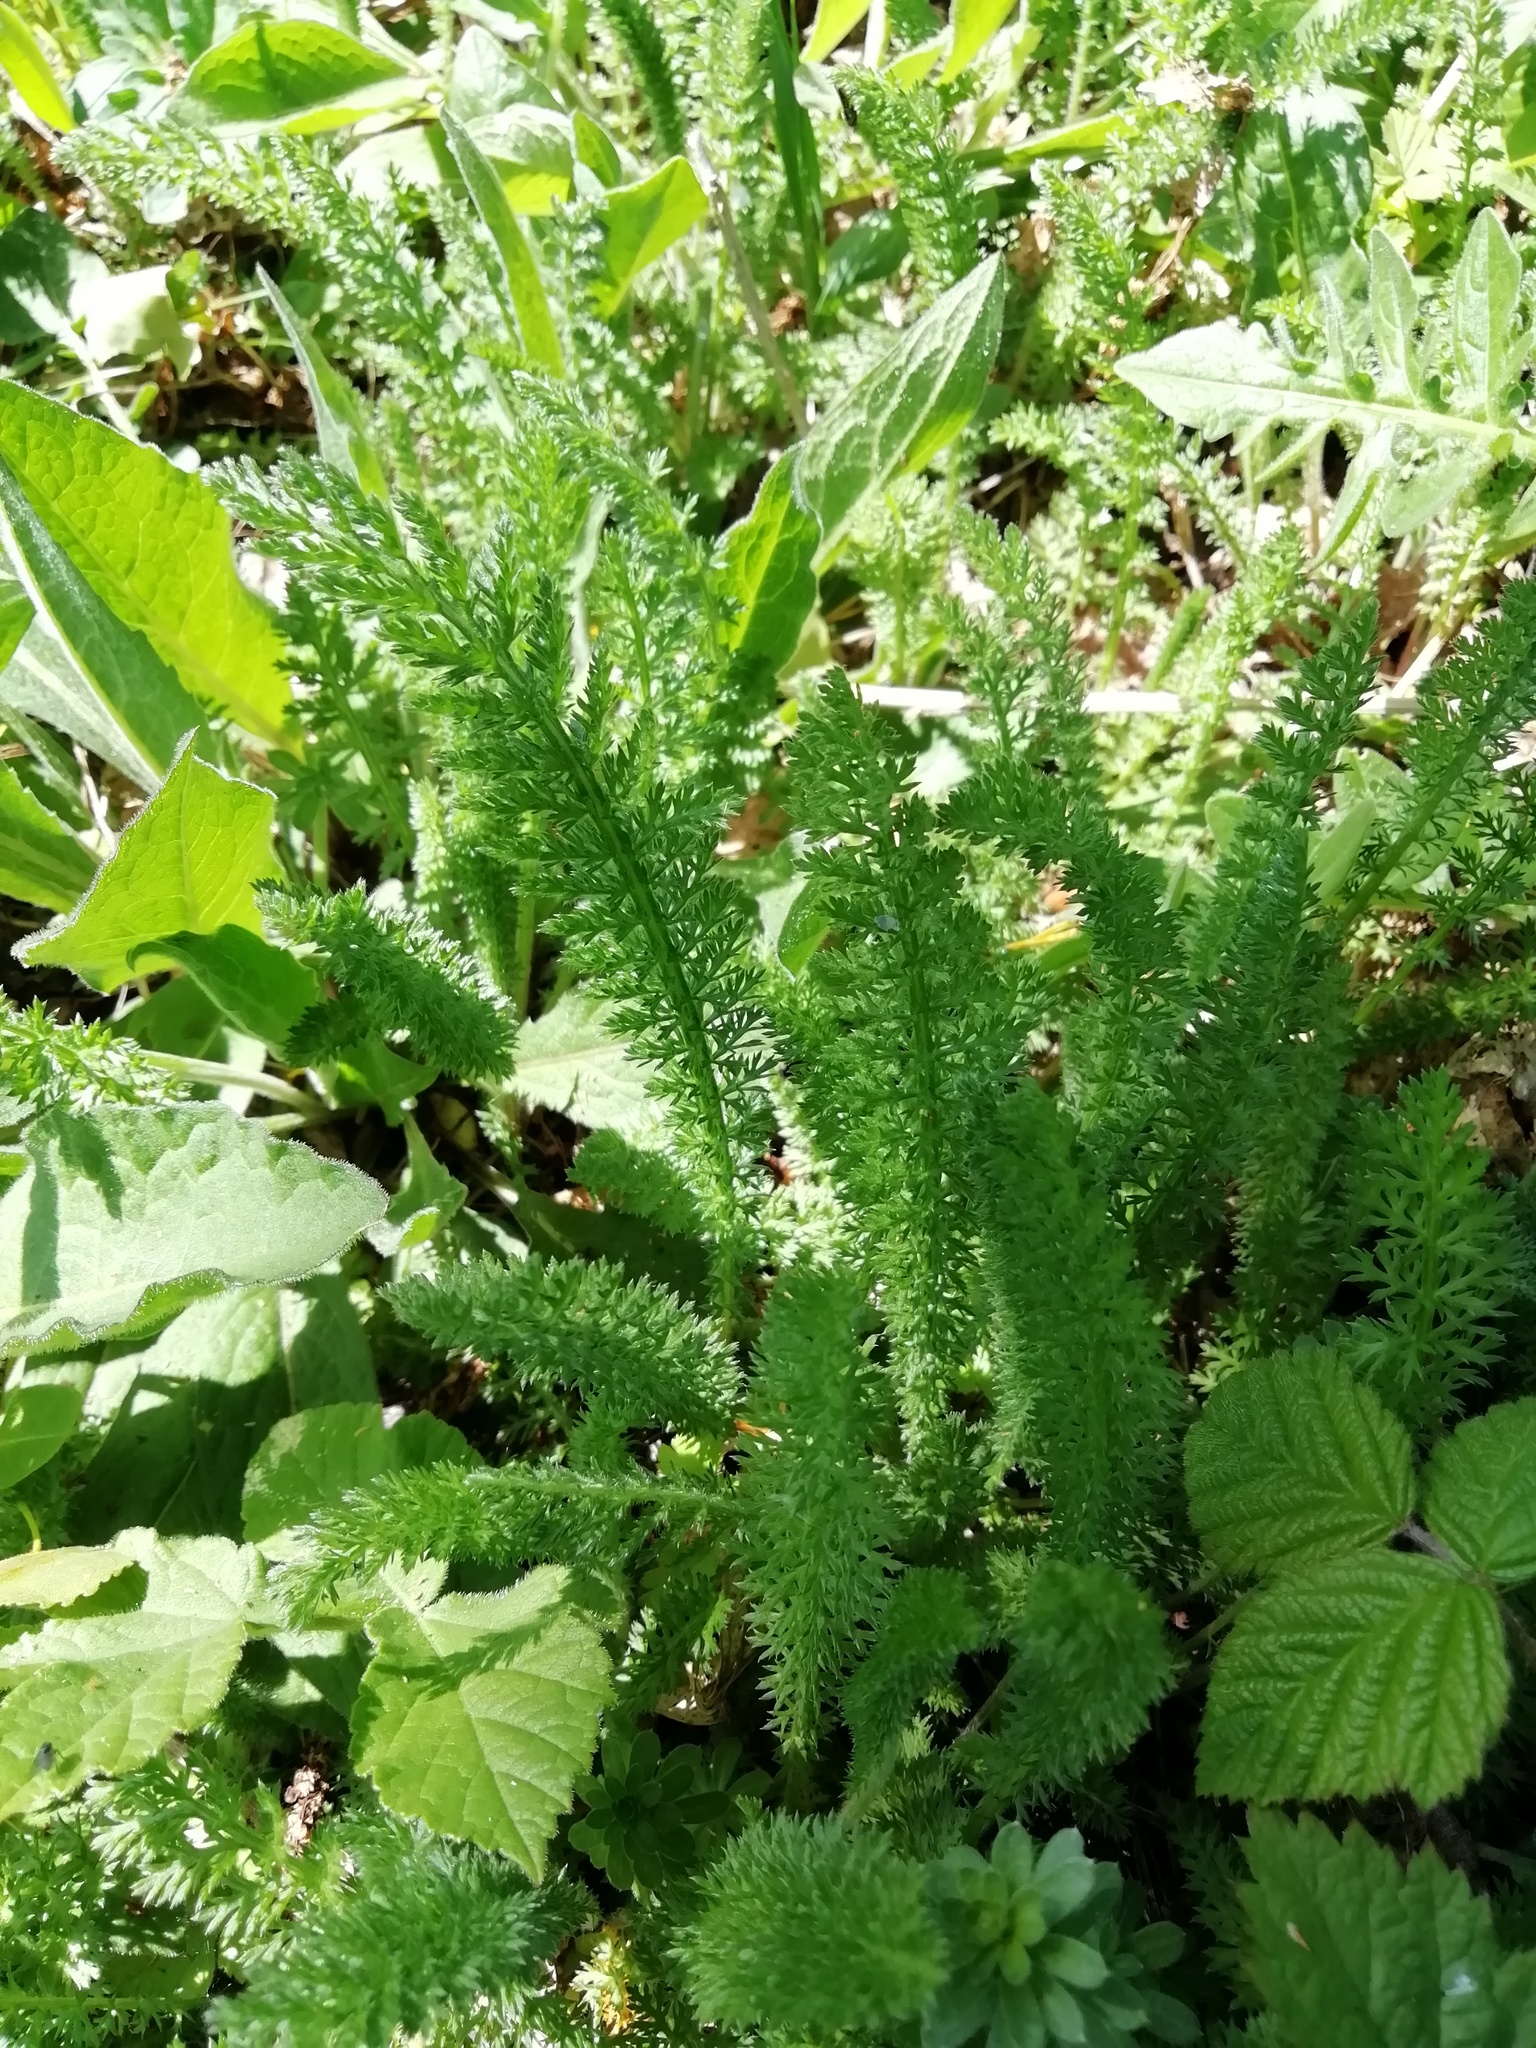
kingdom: Plantae
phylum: Tracheophyta
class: Magnoliopsida
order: Asterales
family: Asteraceae
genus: Achillea
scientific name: Achillea millefolium
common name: Yarrow
